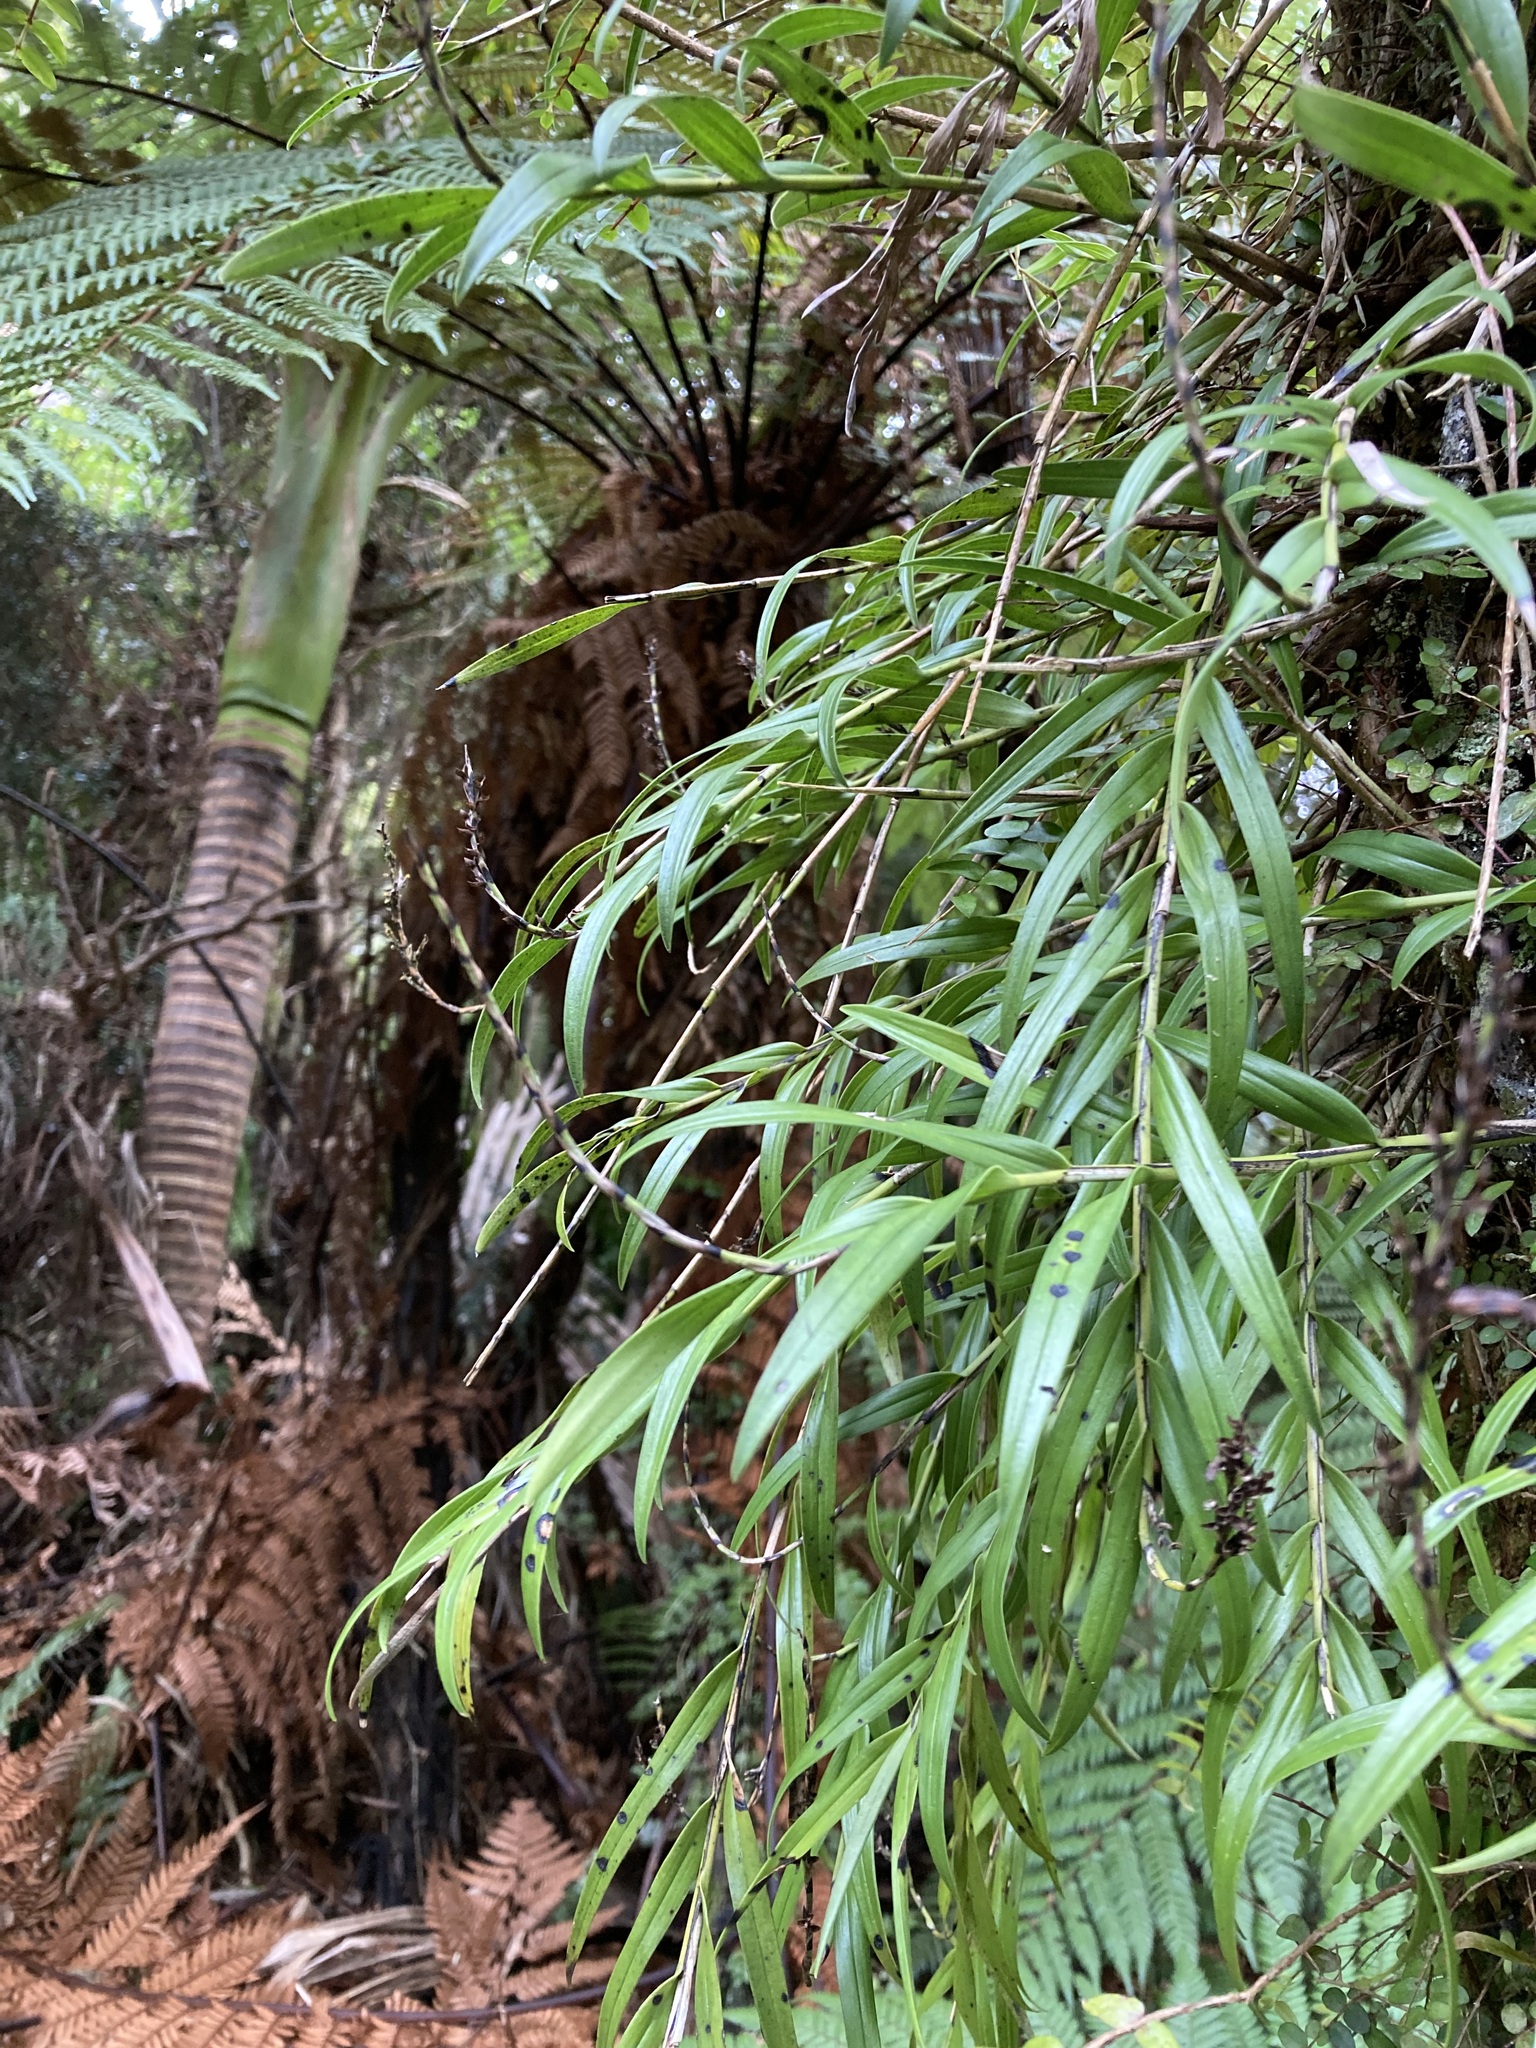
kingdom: Plantae
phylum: Tracheophyta
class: Liliopsida
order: Asparagales
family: Orchidaceae
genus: Earina
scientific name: Earina autumnalis
